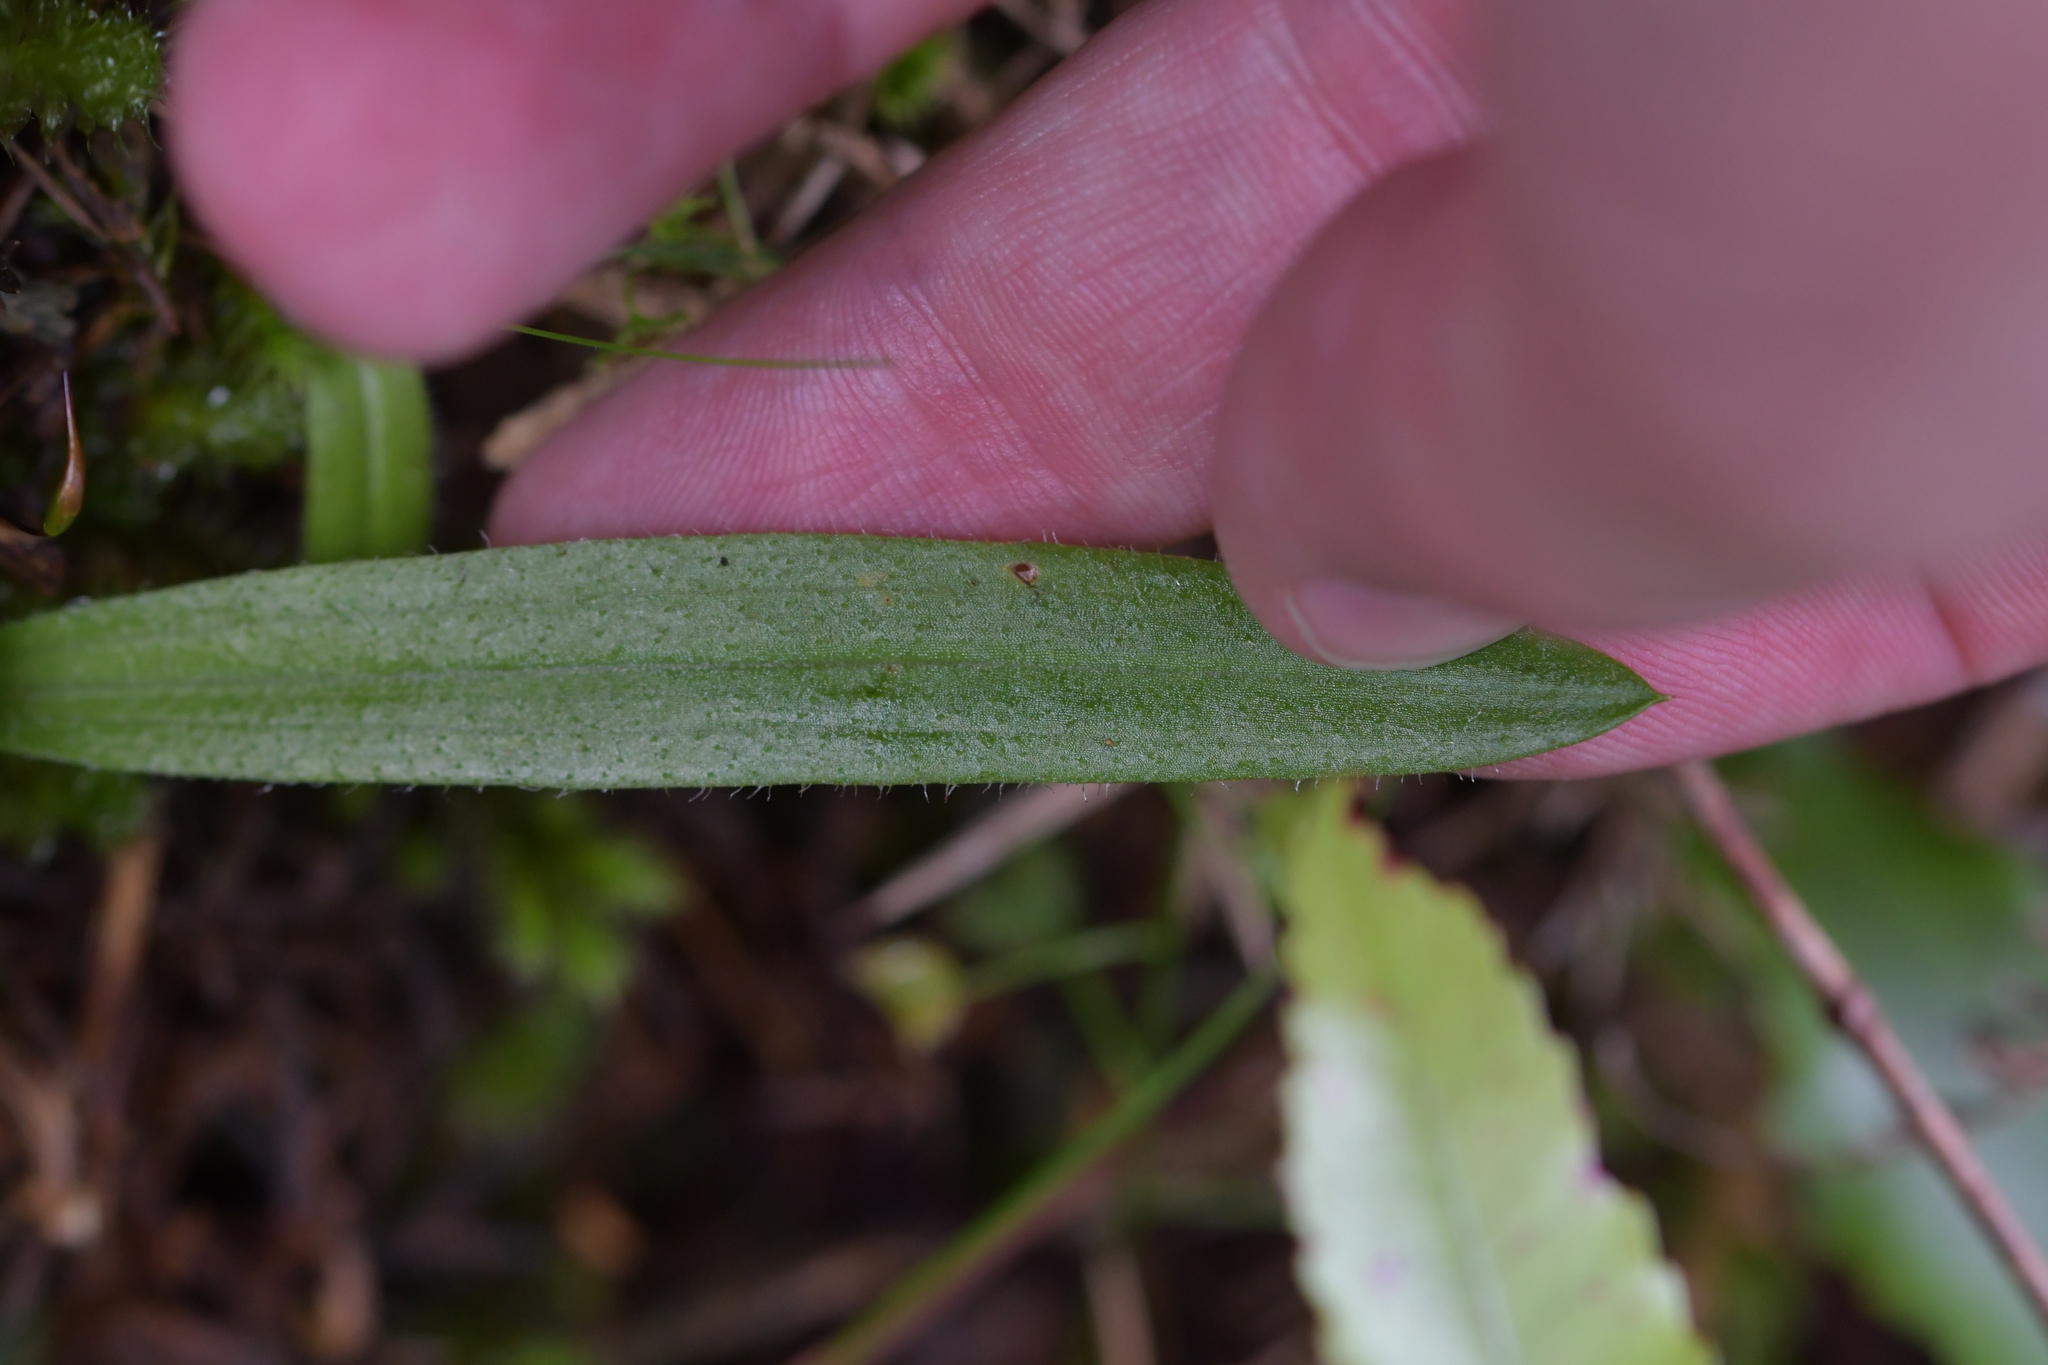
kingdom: Plantae
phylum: Tracheophyta
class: Liliopsida
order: Asparagales
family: Orchidaceae
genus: Aporostylis
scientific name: Aporostylis bifolia
